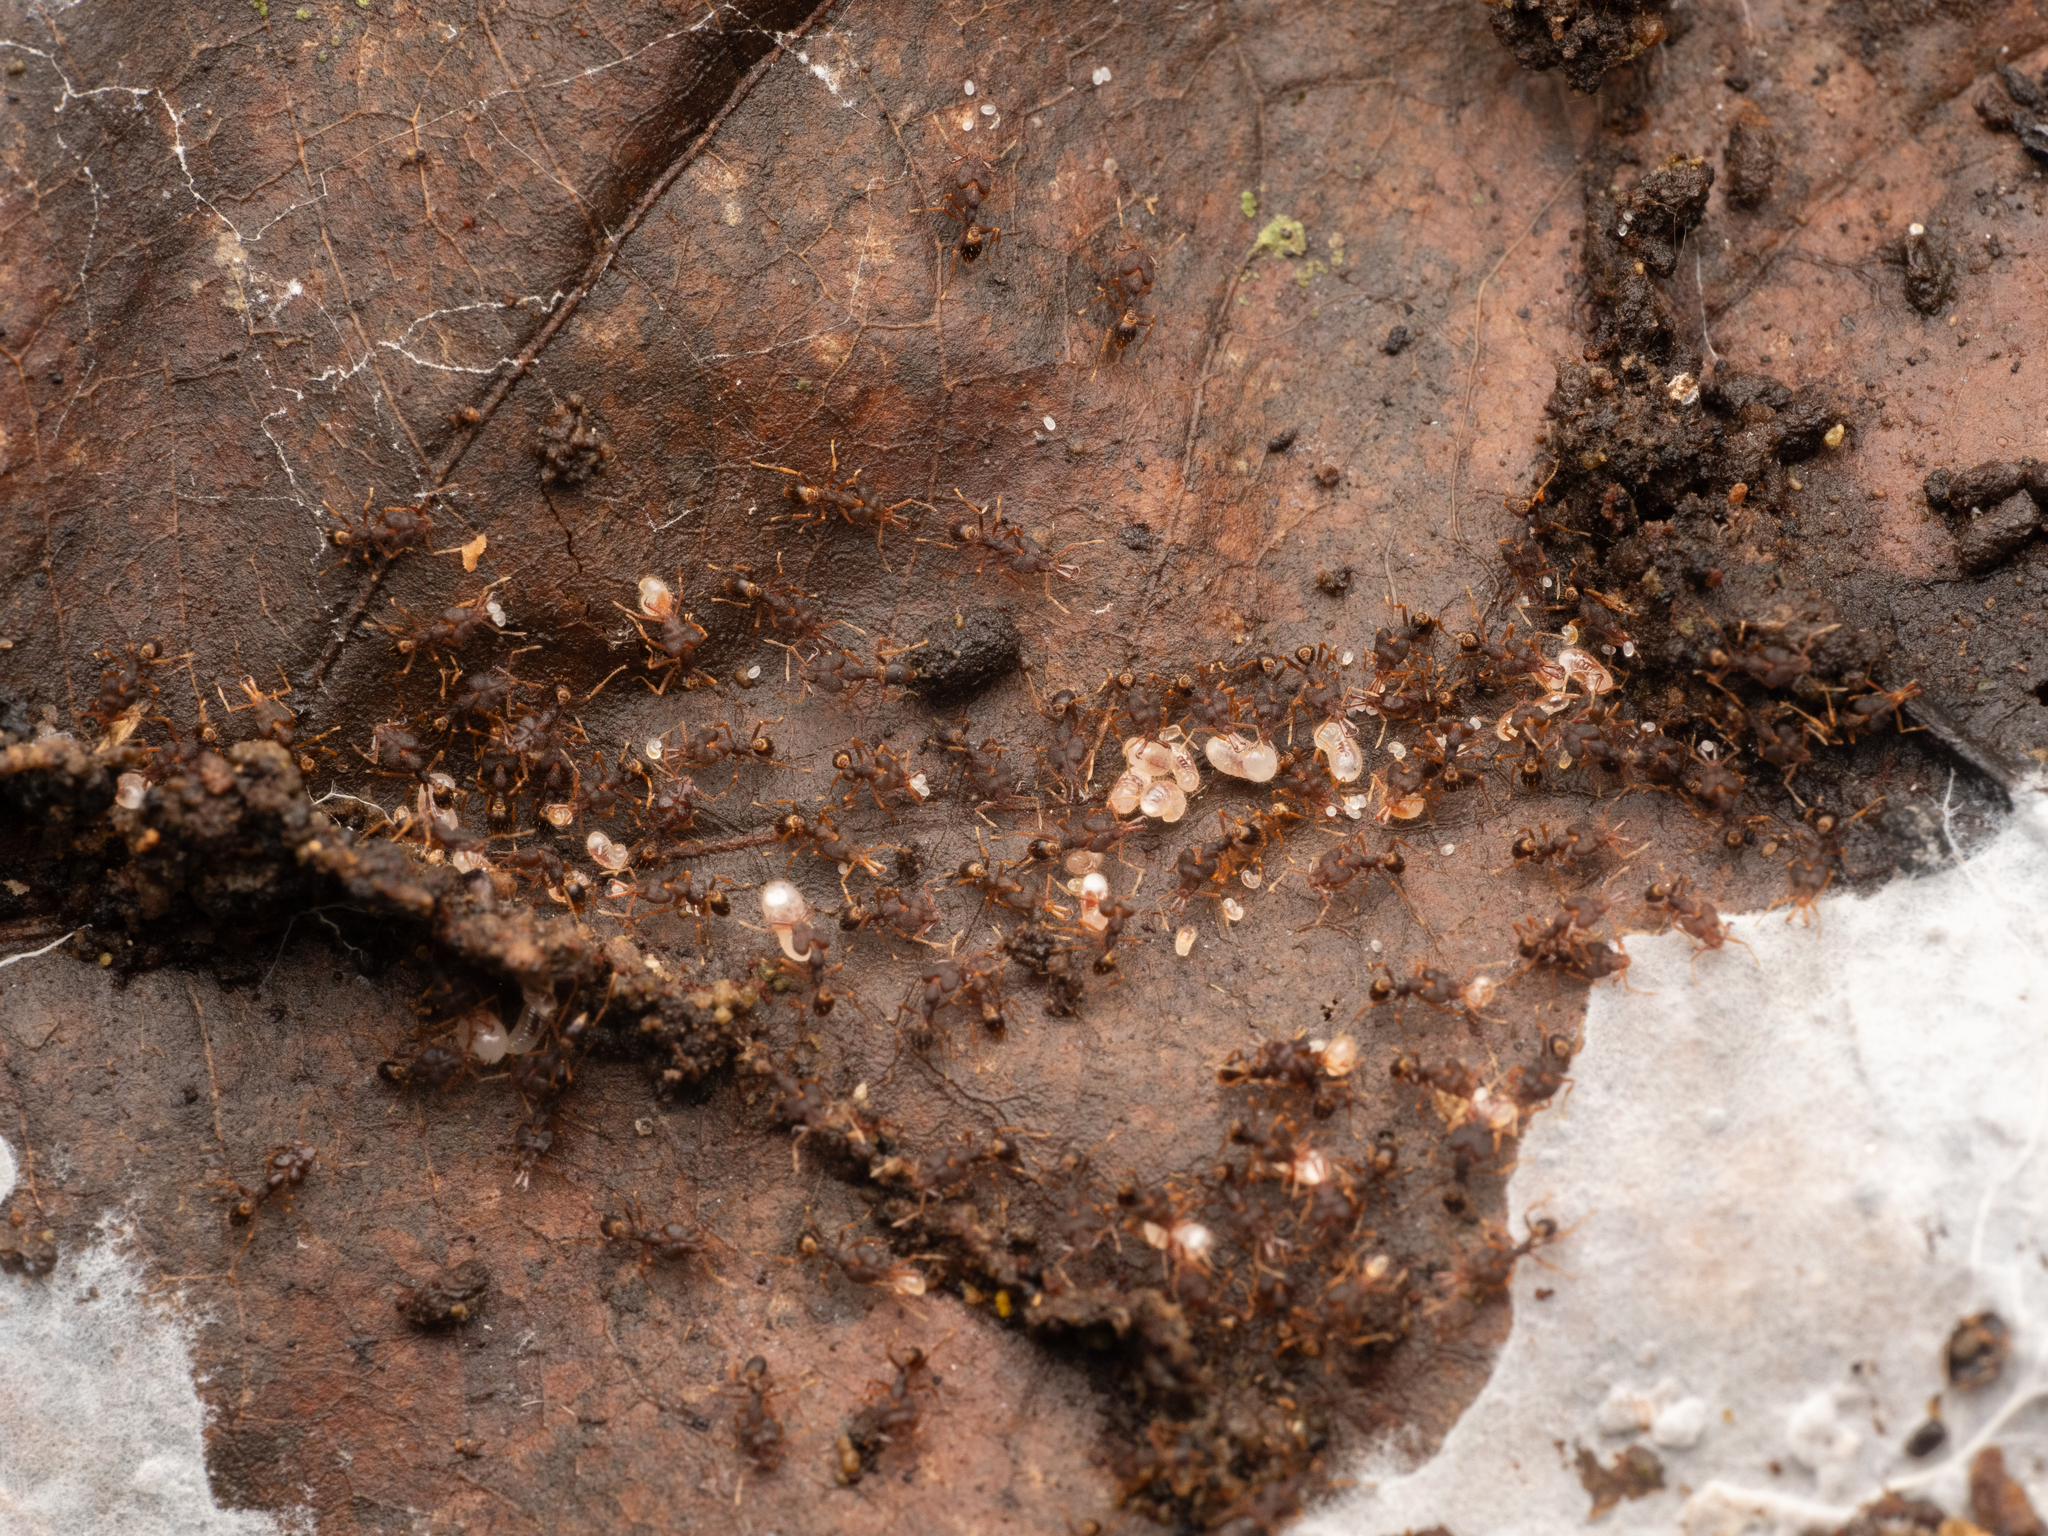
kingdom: Animalia
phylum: Arthropoda
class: Insecta
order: Hymenoptera
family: Formicidae
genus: Strumigenys
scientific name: Strumigenys chyzeri
